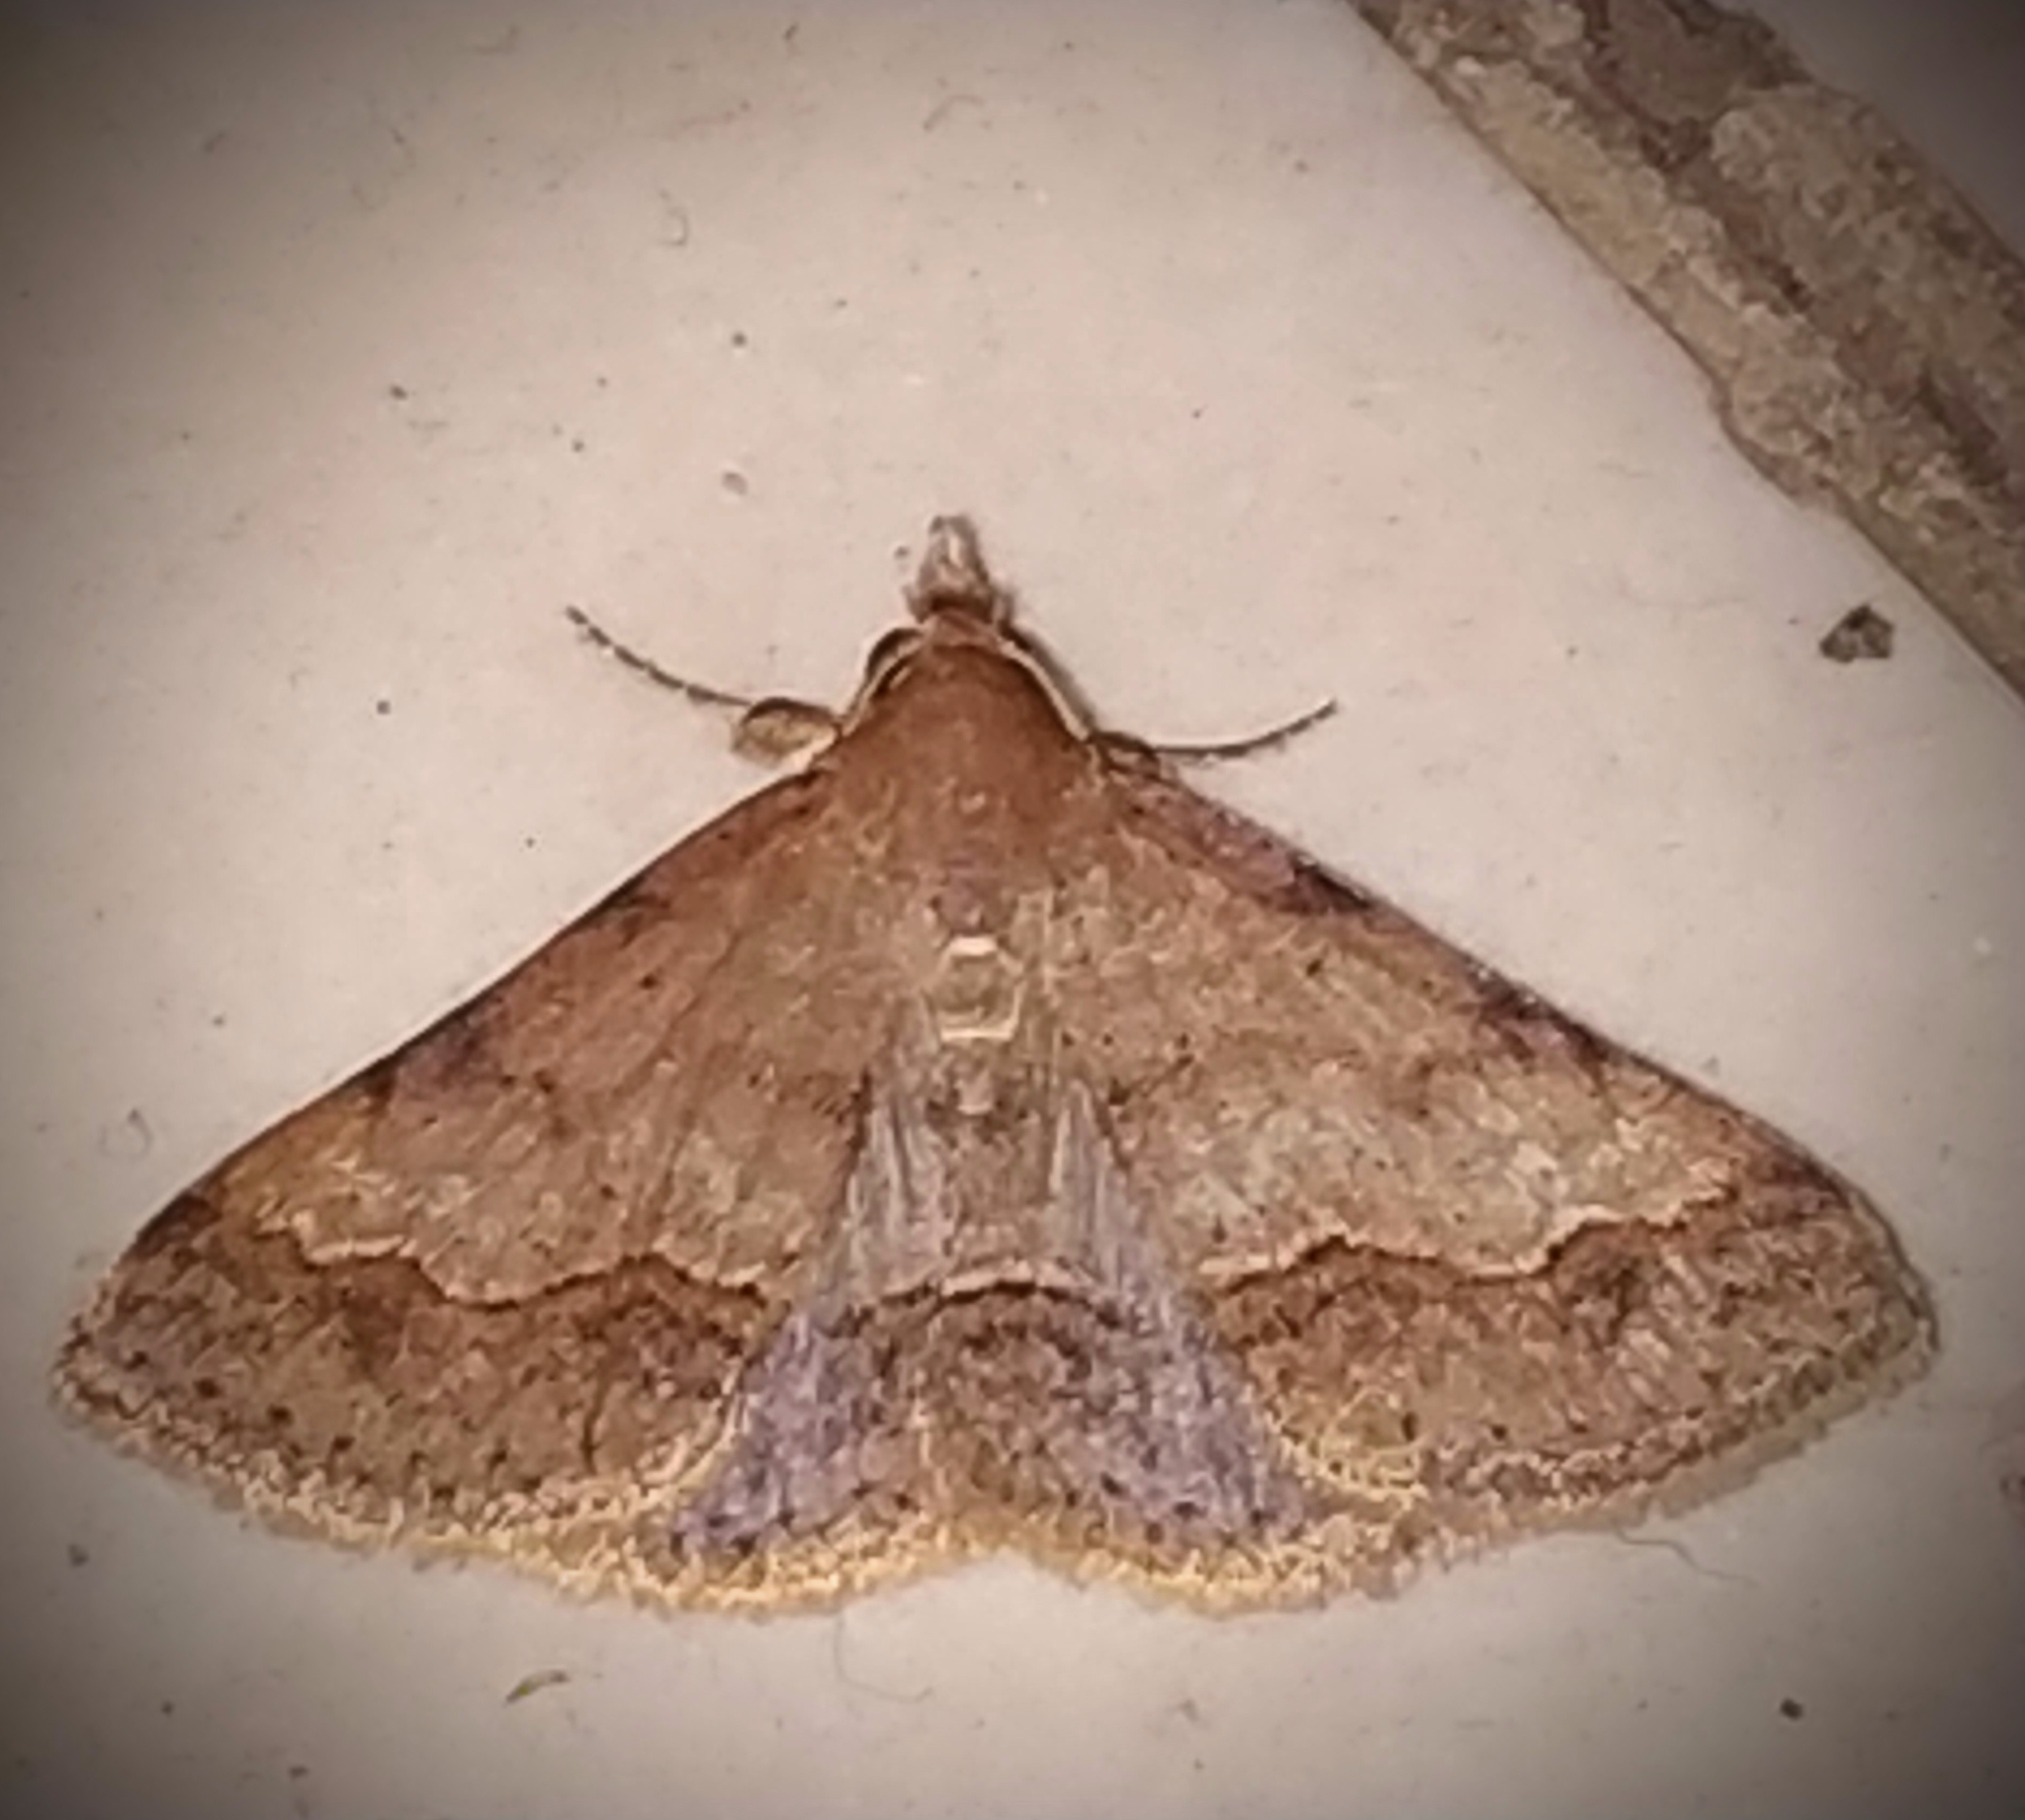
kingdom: Animalia
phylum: Arthropoda
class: Insecta
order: Lepidoptera
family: Erebidae
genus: Gesonia
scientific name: Gesonia obeditalis
